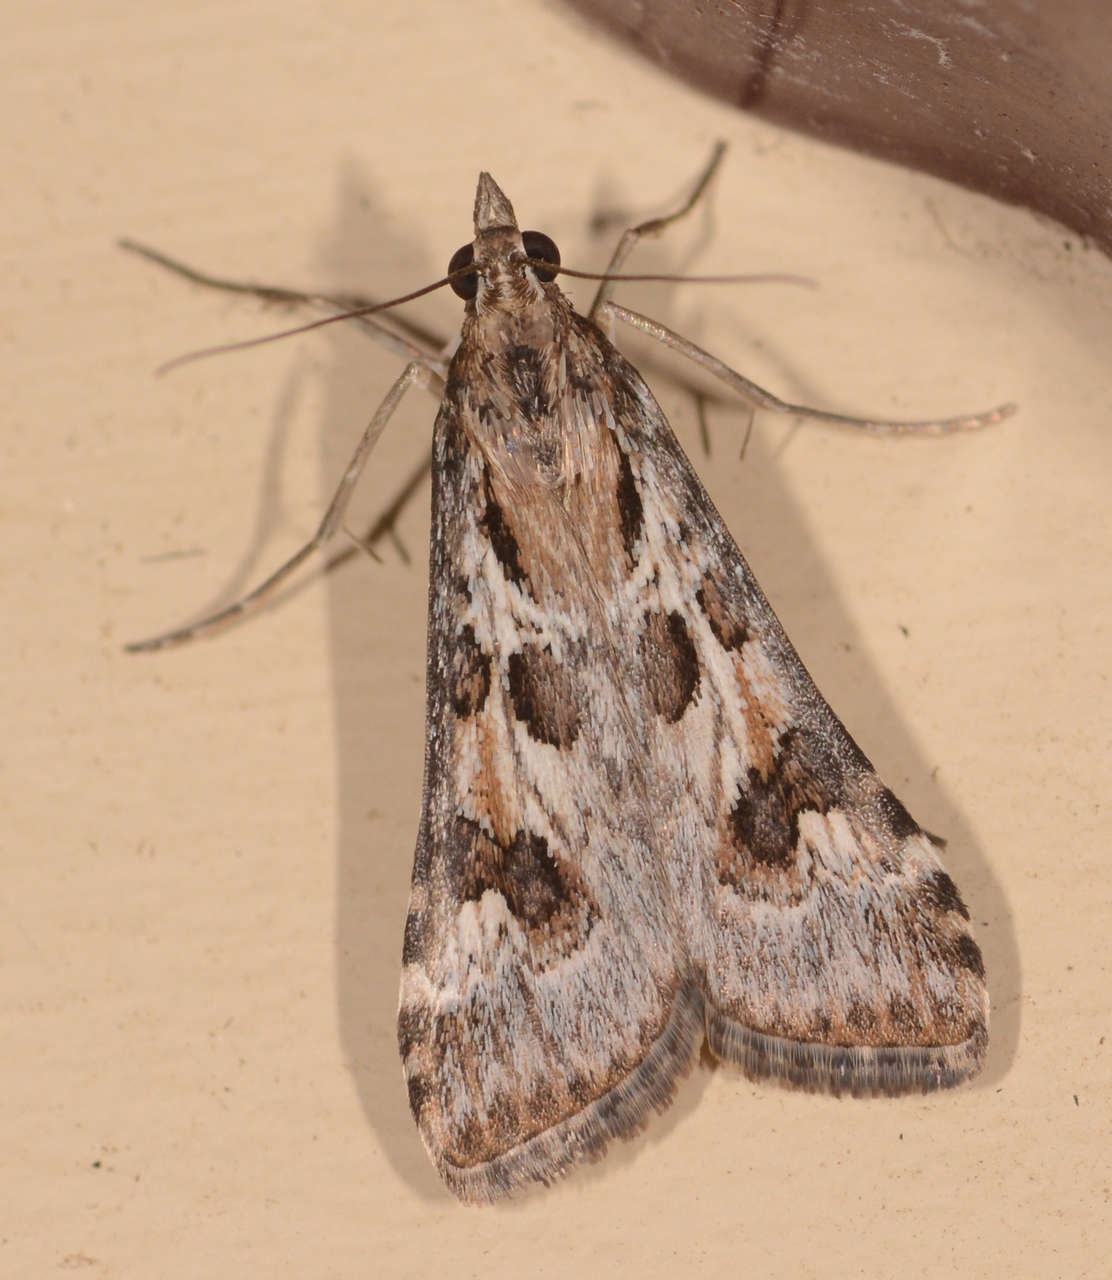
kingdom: Animalia
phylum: Arthropoda
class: Insecta
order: Lepidoptera
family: Crambidae
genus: Nomophila
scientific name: Nomophila corticalis
